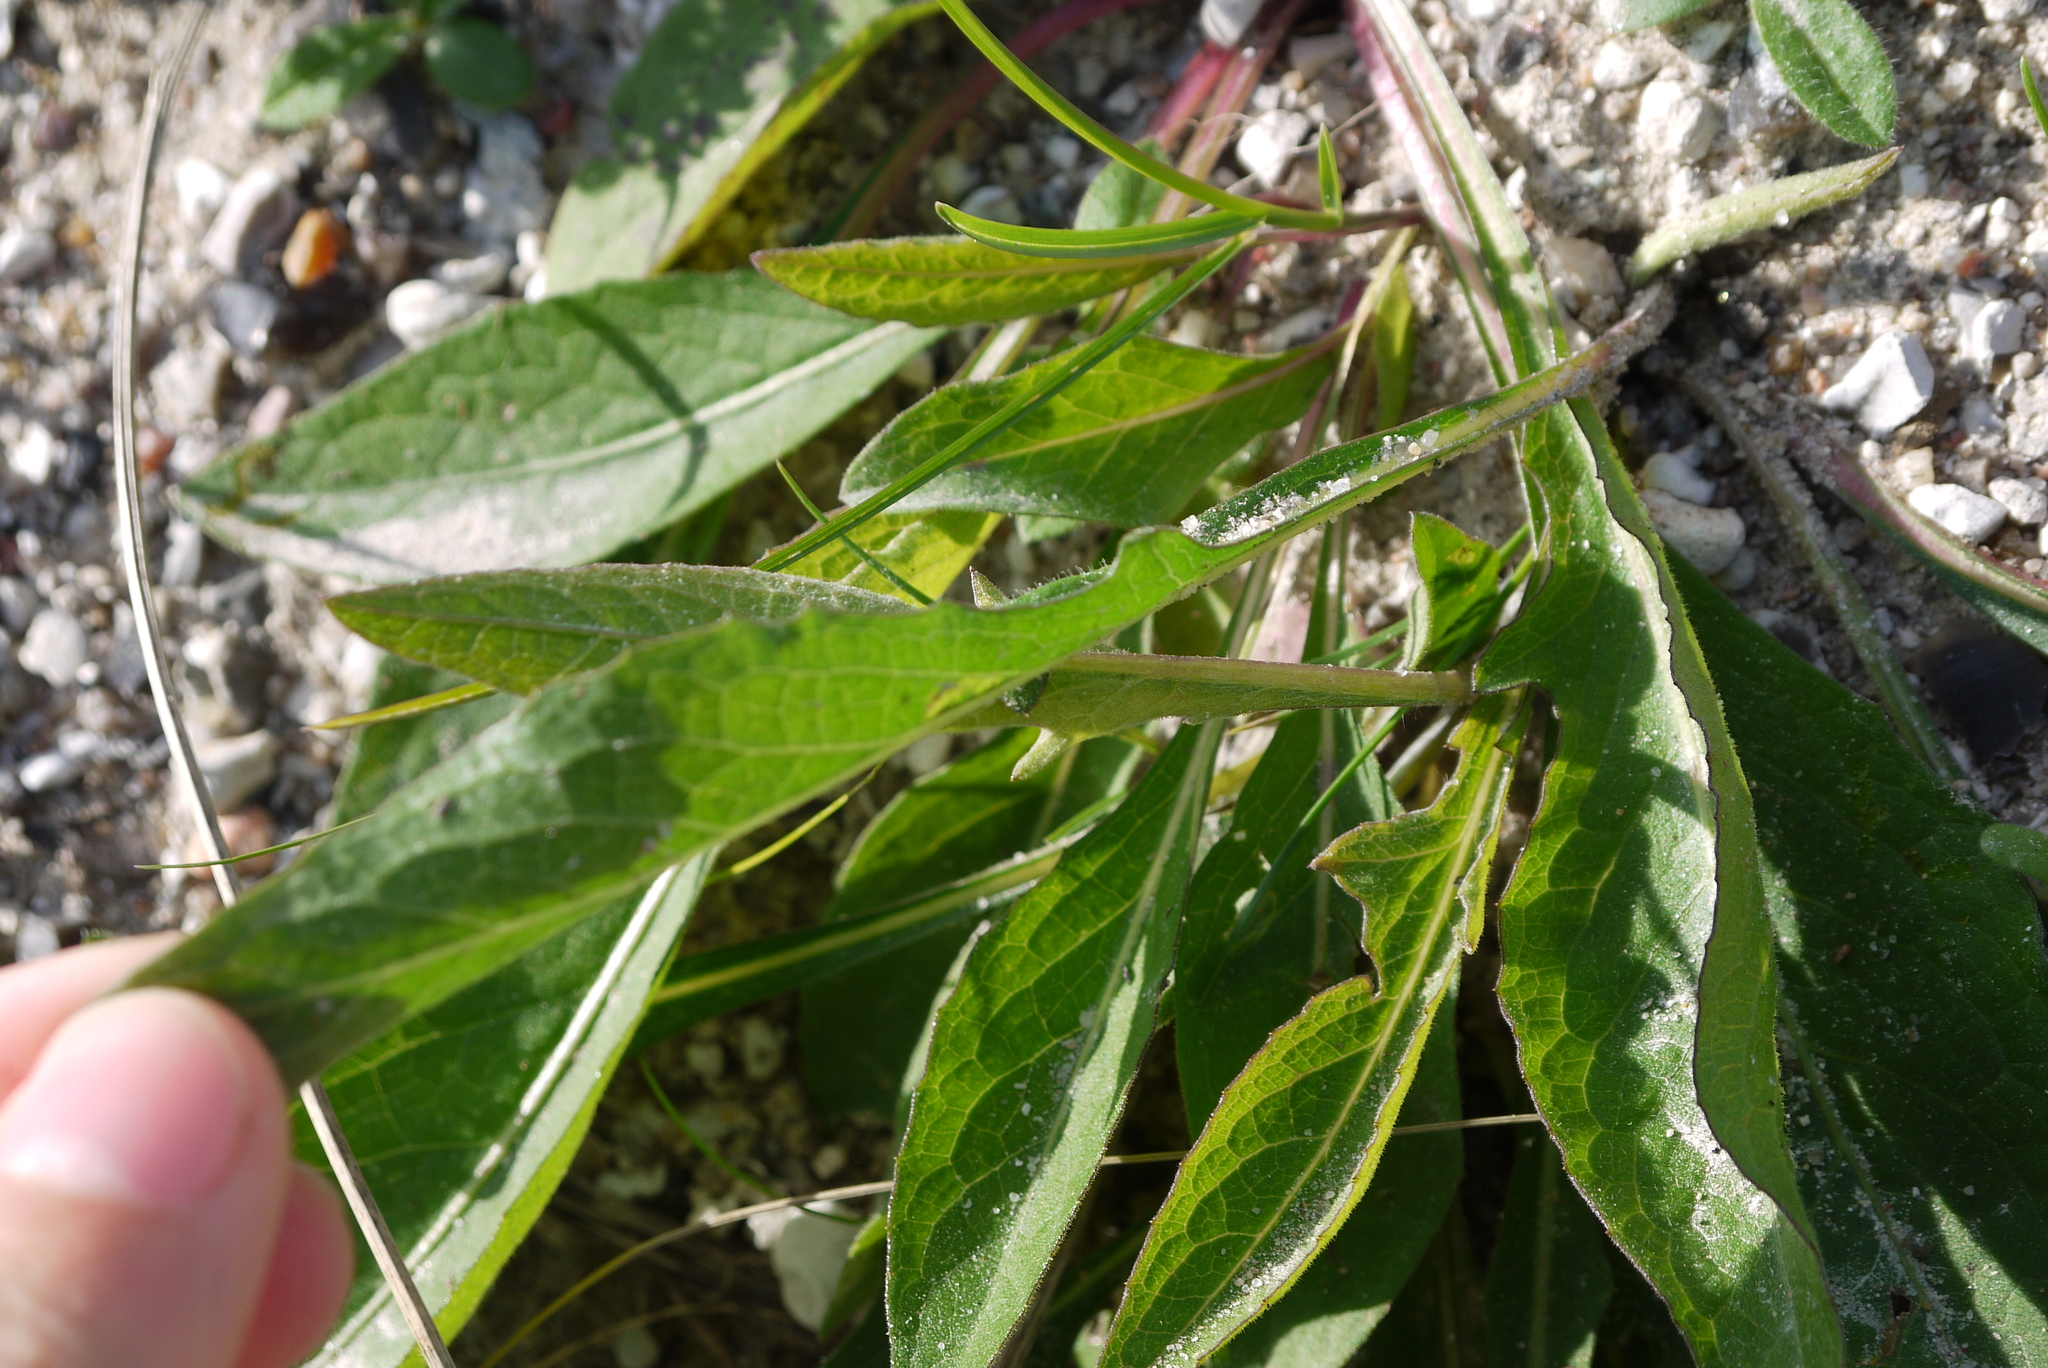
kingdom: Plantae
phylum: Tracheophyta
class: Magnoliopsida
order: Asterales
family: Asteraceae
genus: Centaurea
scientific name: Centaurea jacea
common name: Brown knapweed
